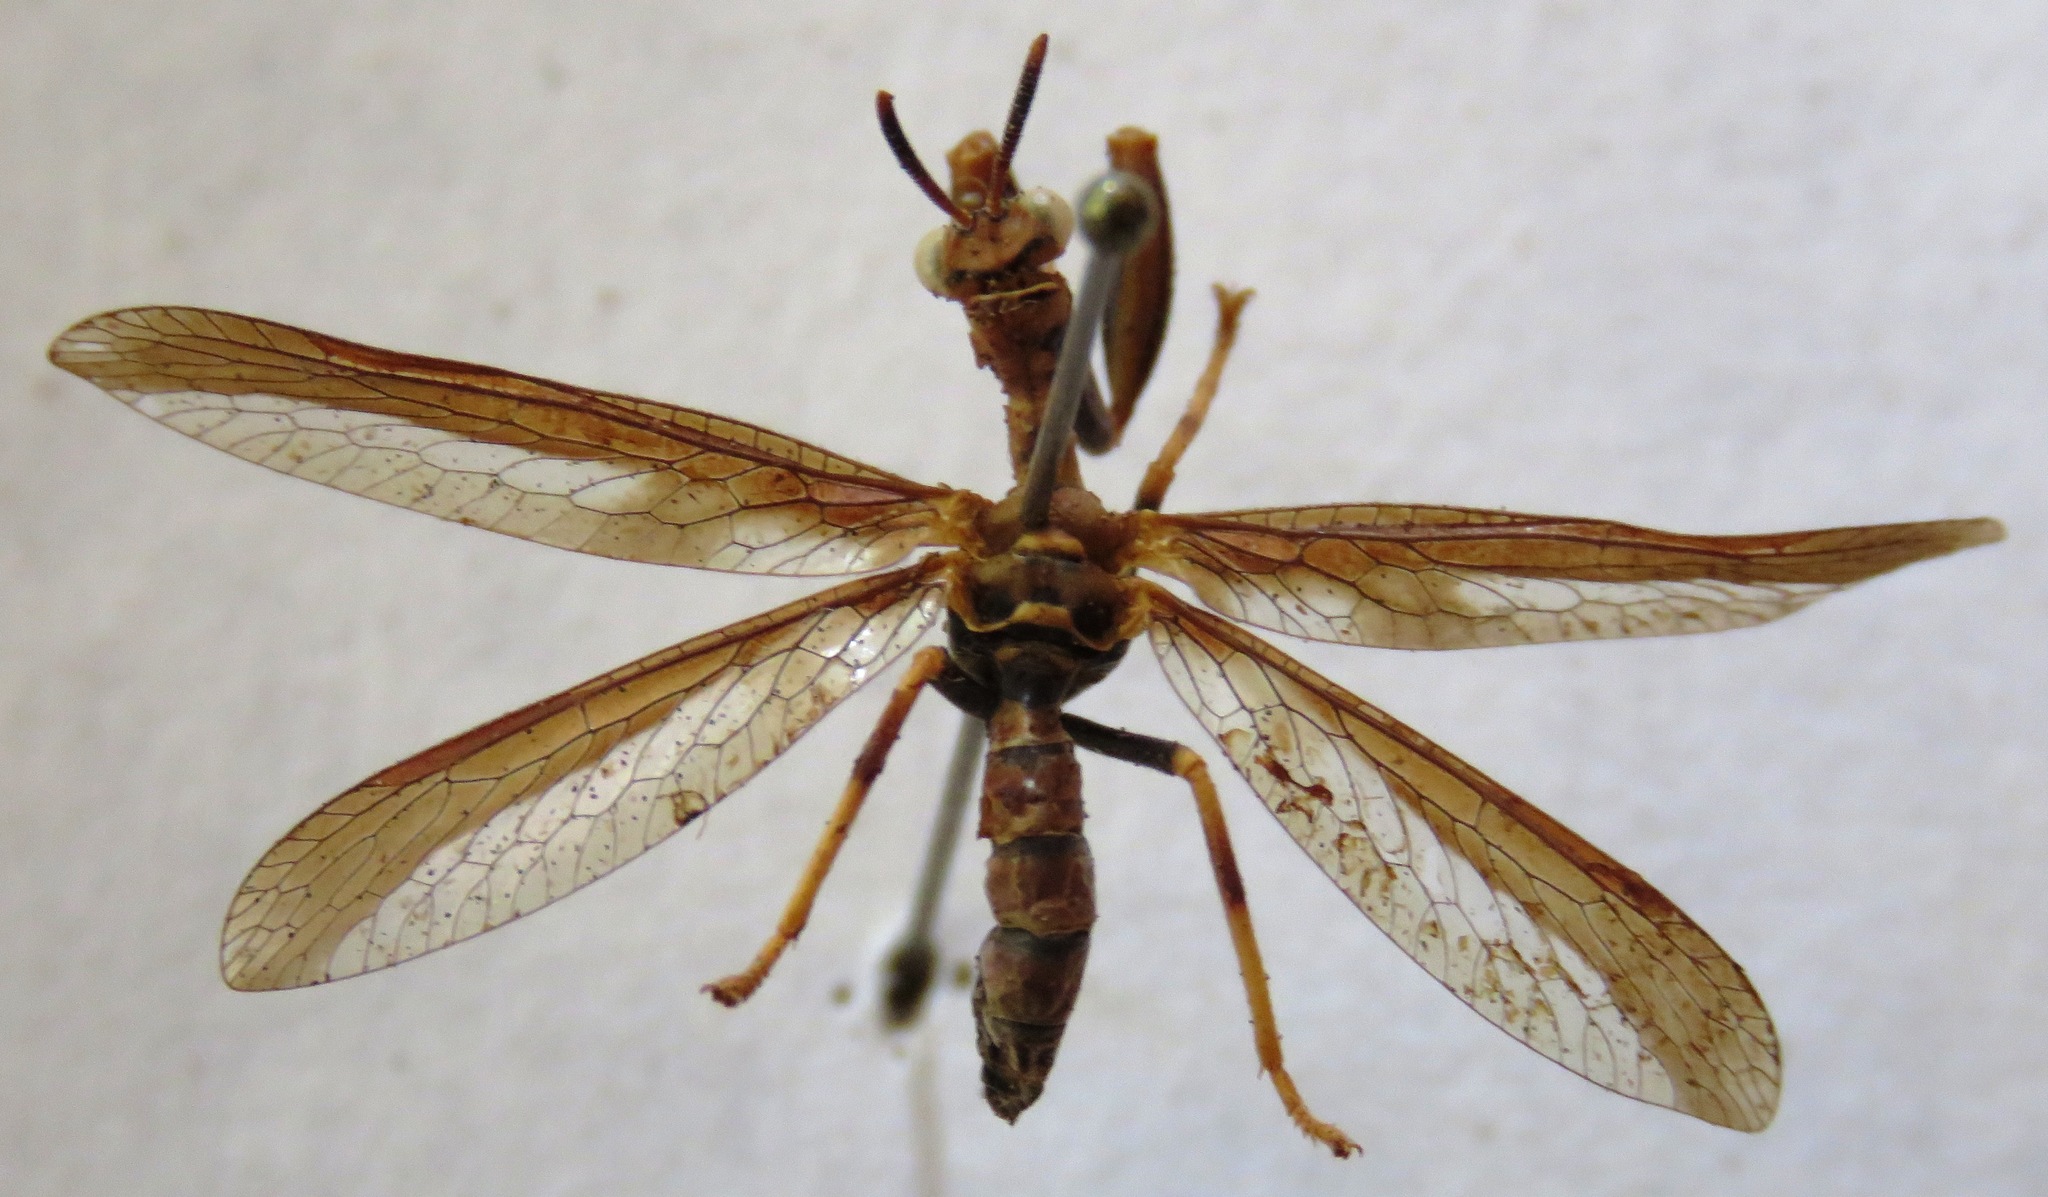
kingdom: Animalia
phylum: Arthropoda
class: Insecta
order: Neuroptera
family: Mantispidae
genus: Climaciella
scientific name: Climaciella brunnea
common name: Brown wasp mantidfly
